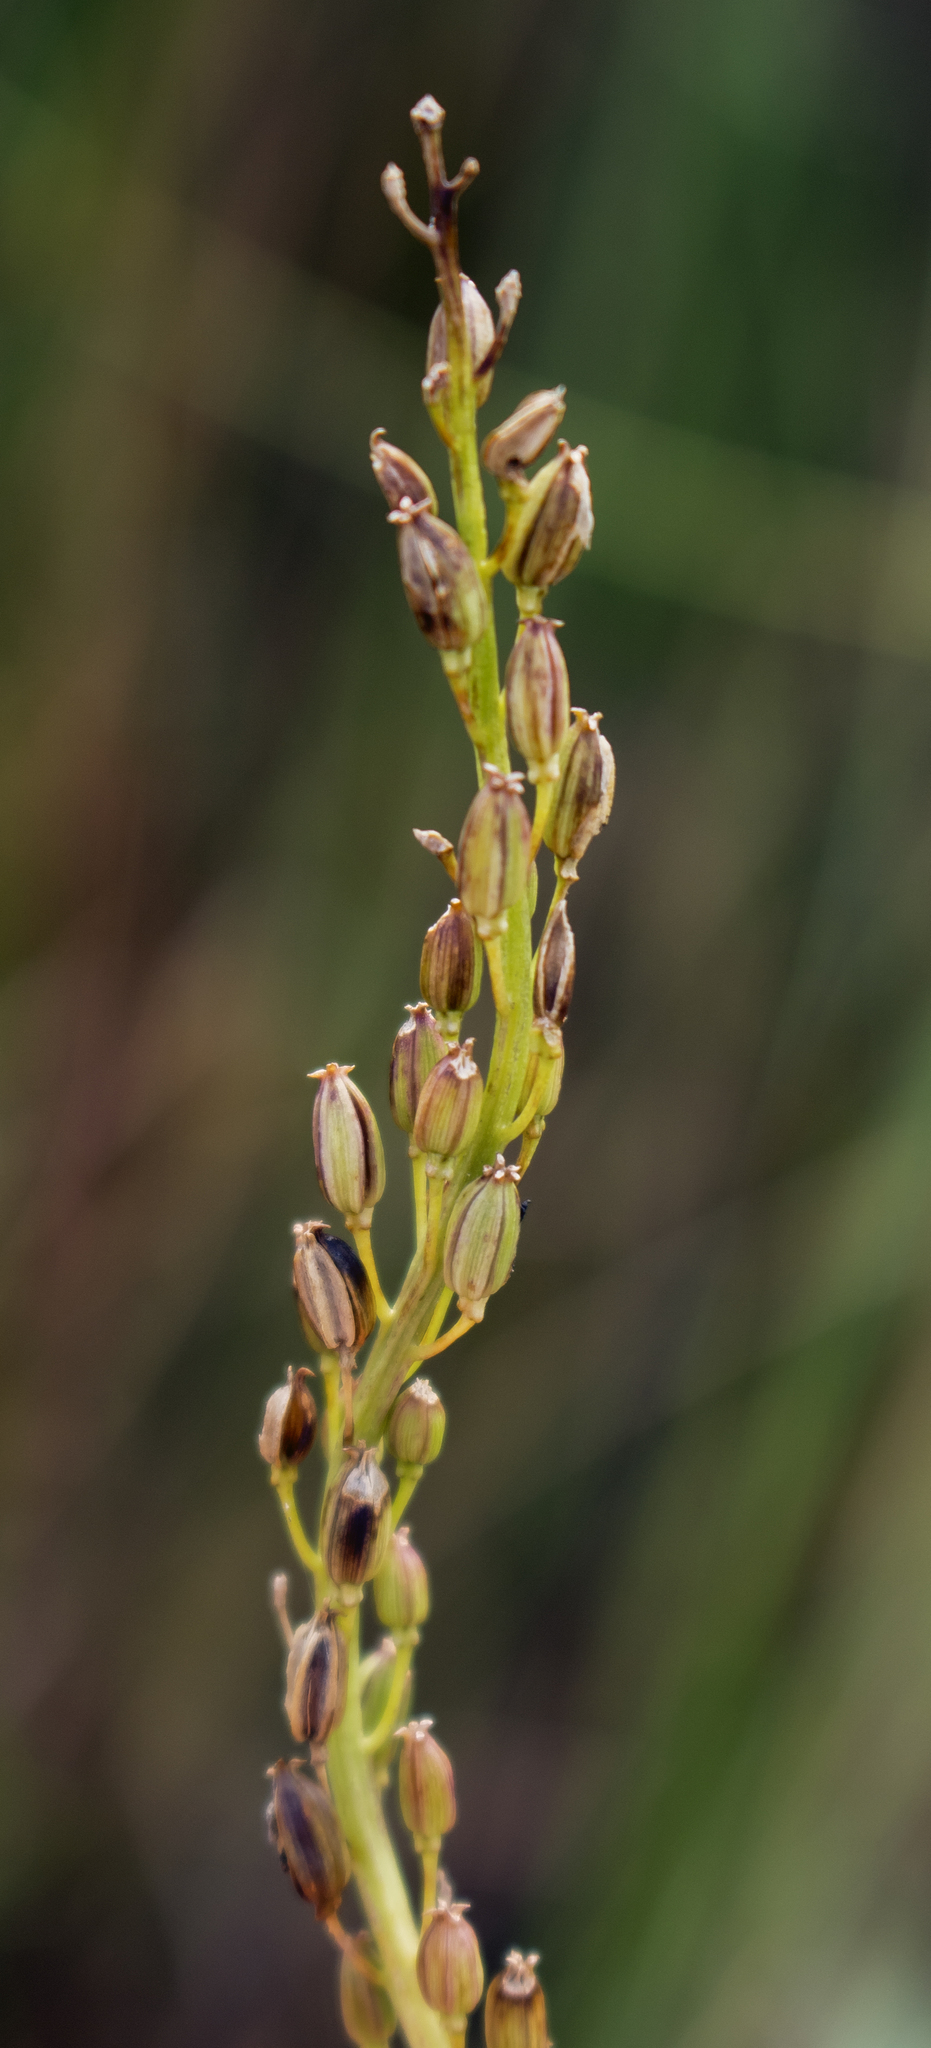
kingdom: Plantae
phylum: Tracheophyta
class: Liliopsida
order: Alismatales
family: Juncaginaceae
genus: Triglochin
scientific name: Triglochin maritima
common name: Sea arrowgrass
